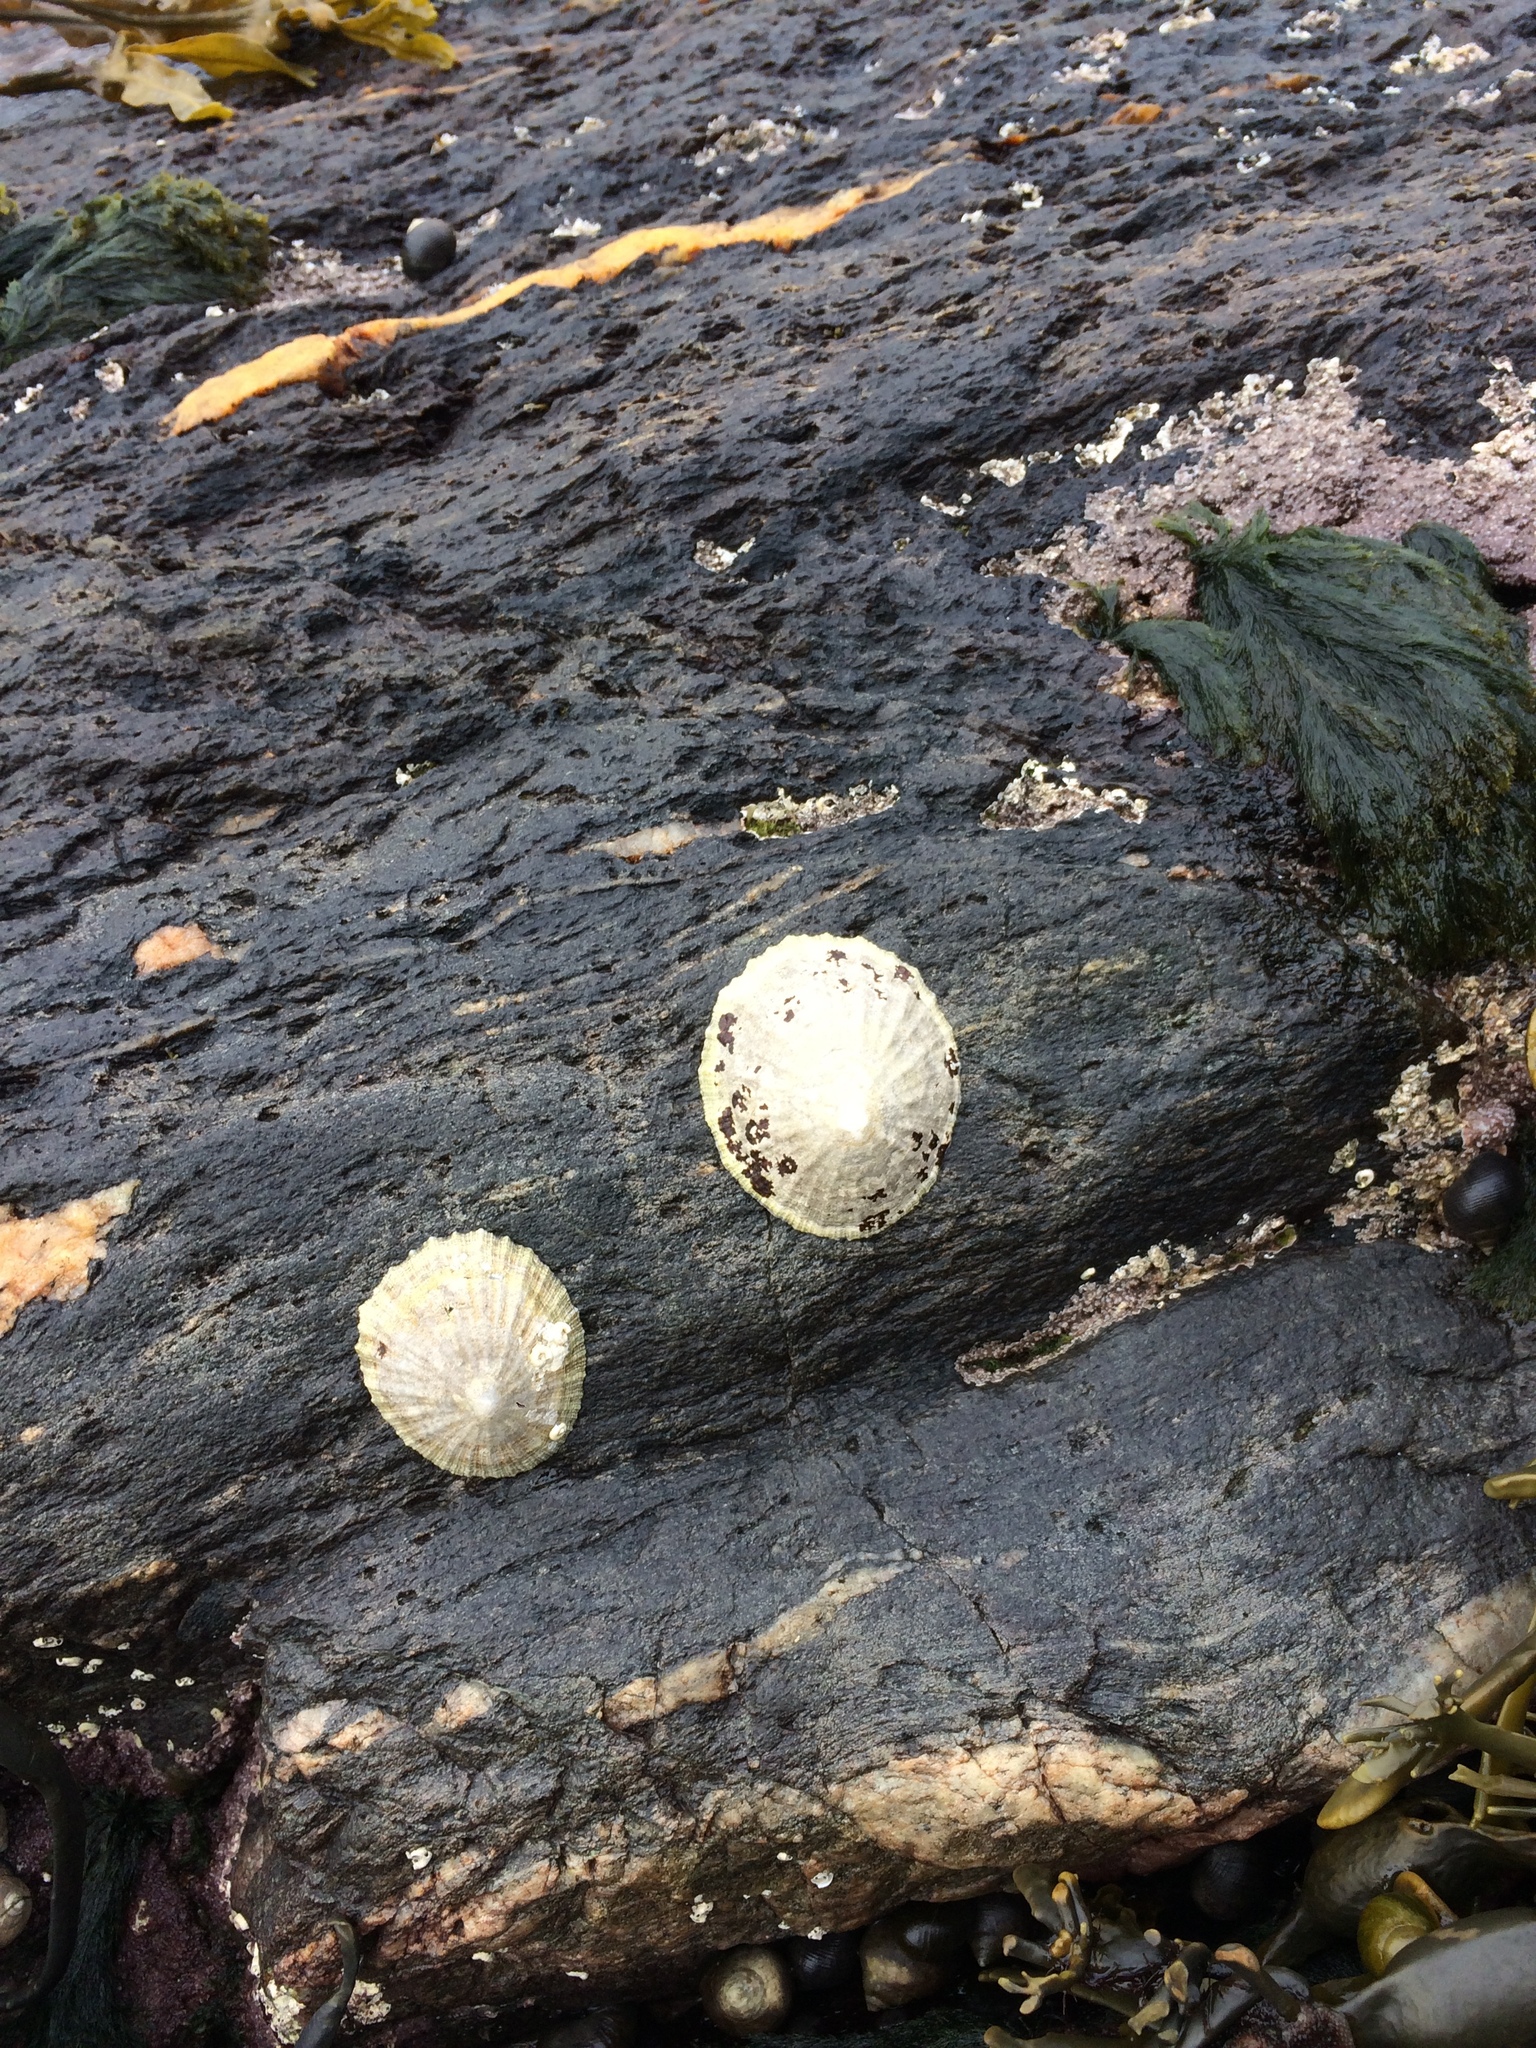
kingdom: Animalia
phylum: Mollusca
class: Gastropoda
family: Patellidae
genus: Patella
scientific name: Patella vulgata
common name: Common limpet
